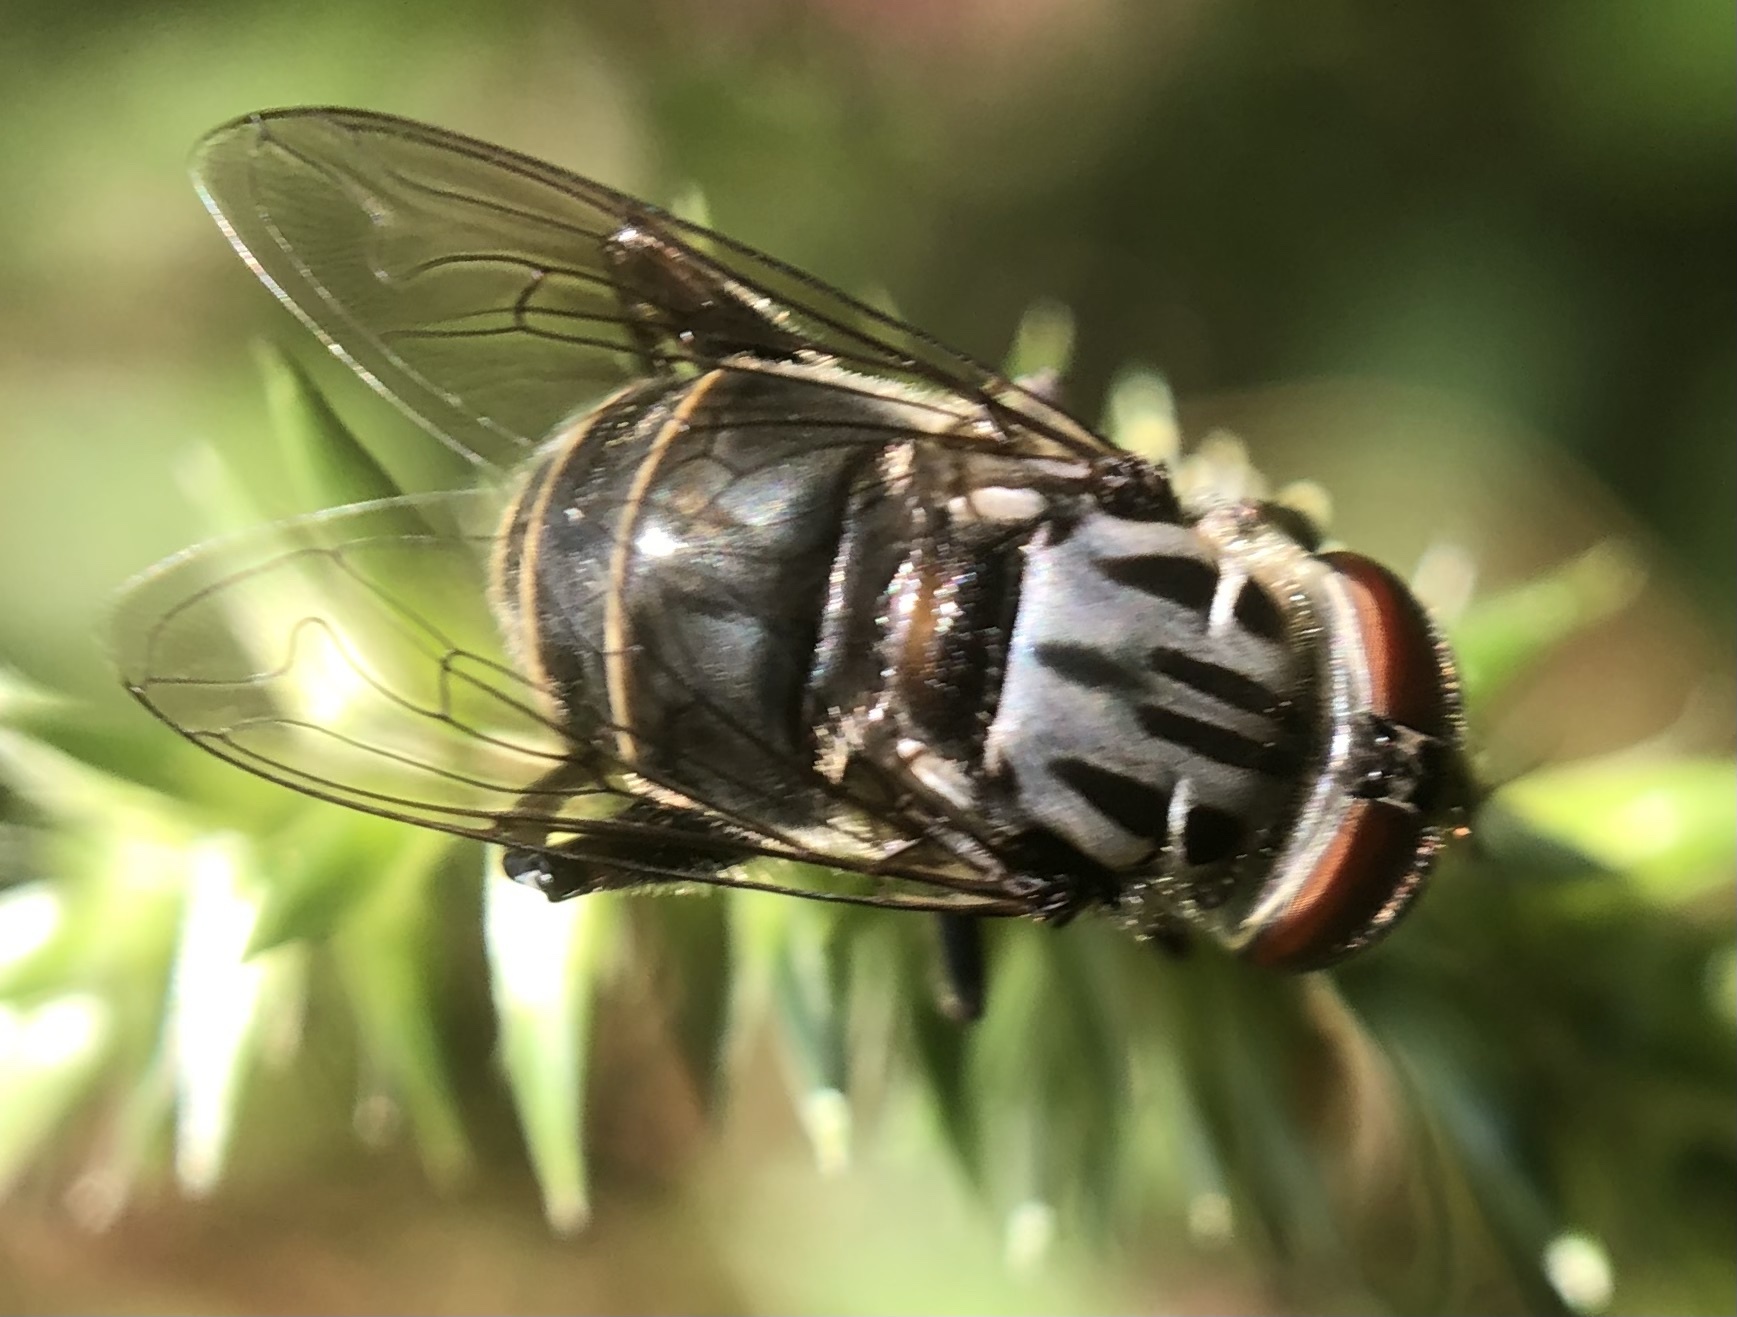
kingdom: Animalia
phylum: Arthropoda
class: Insecta
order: Diptera
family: Syrphidae
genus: Palpada
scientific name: Palpada furcata
